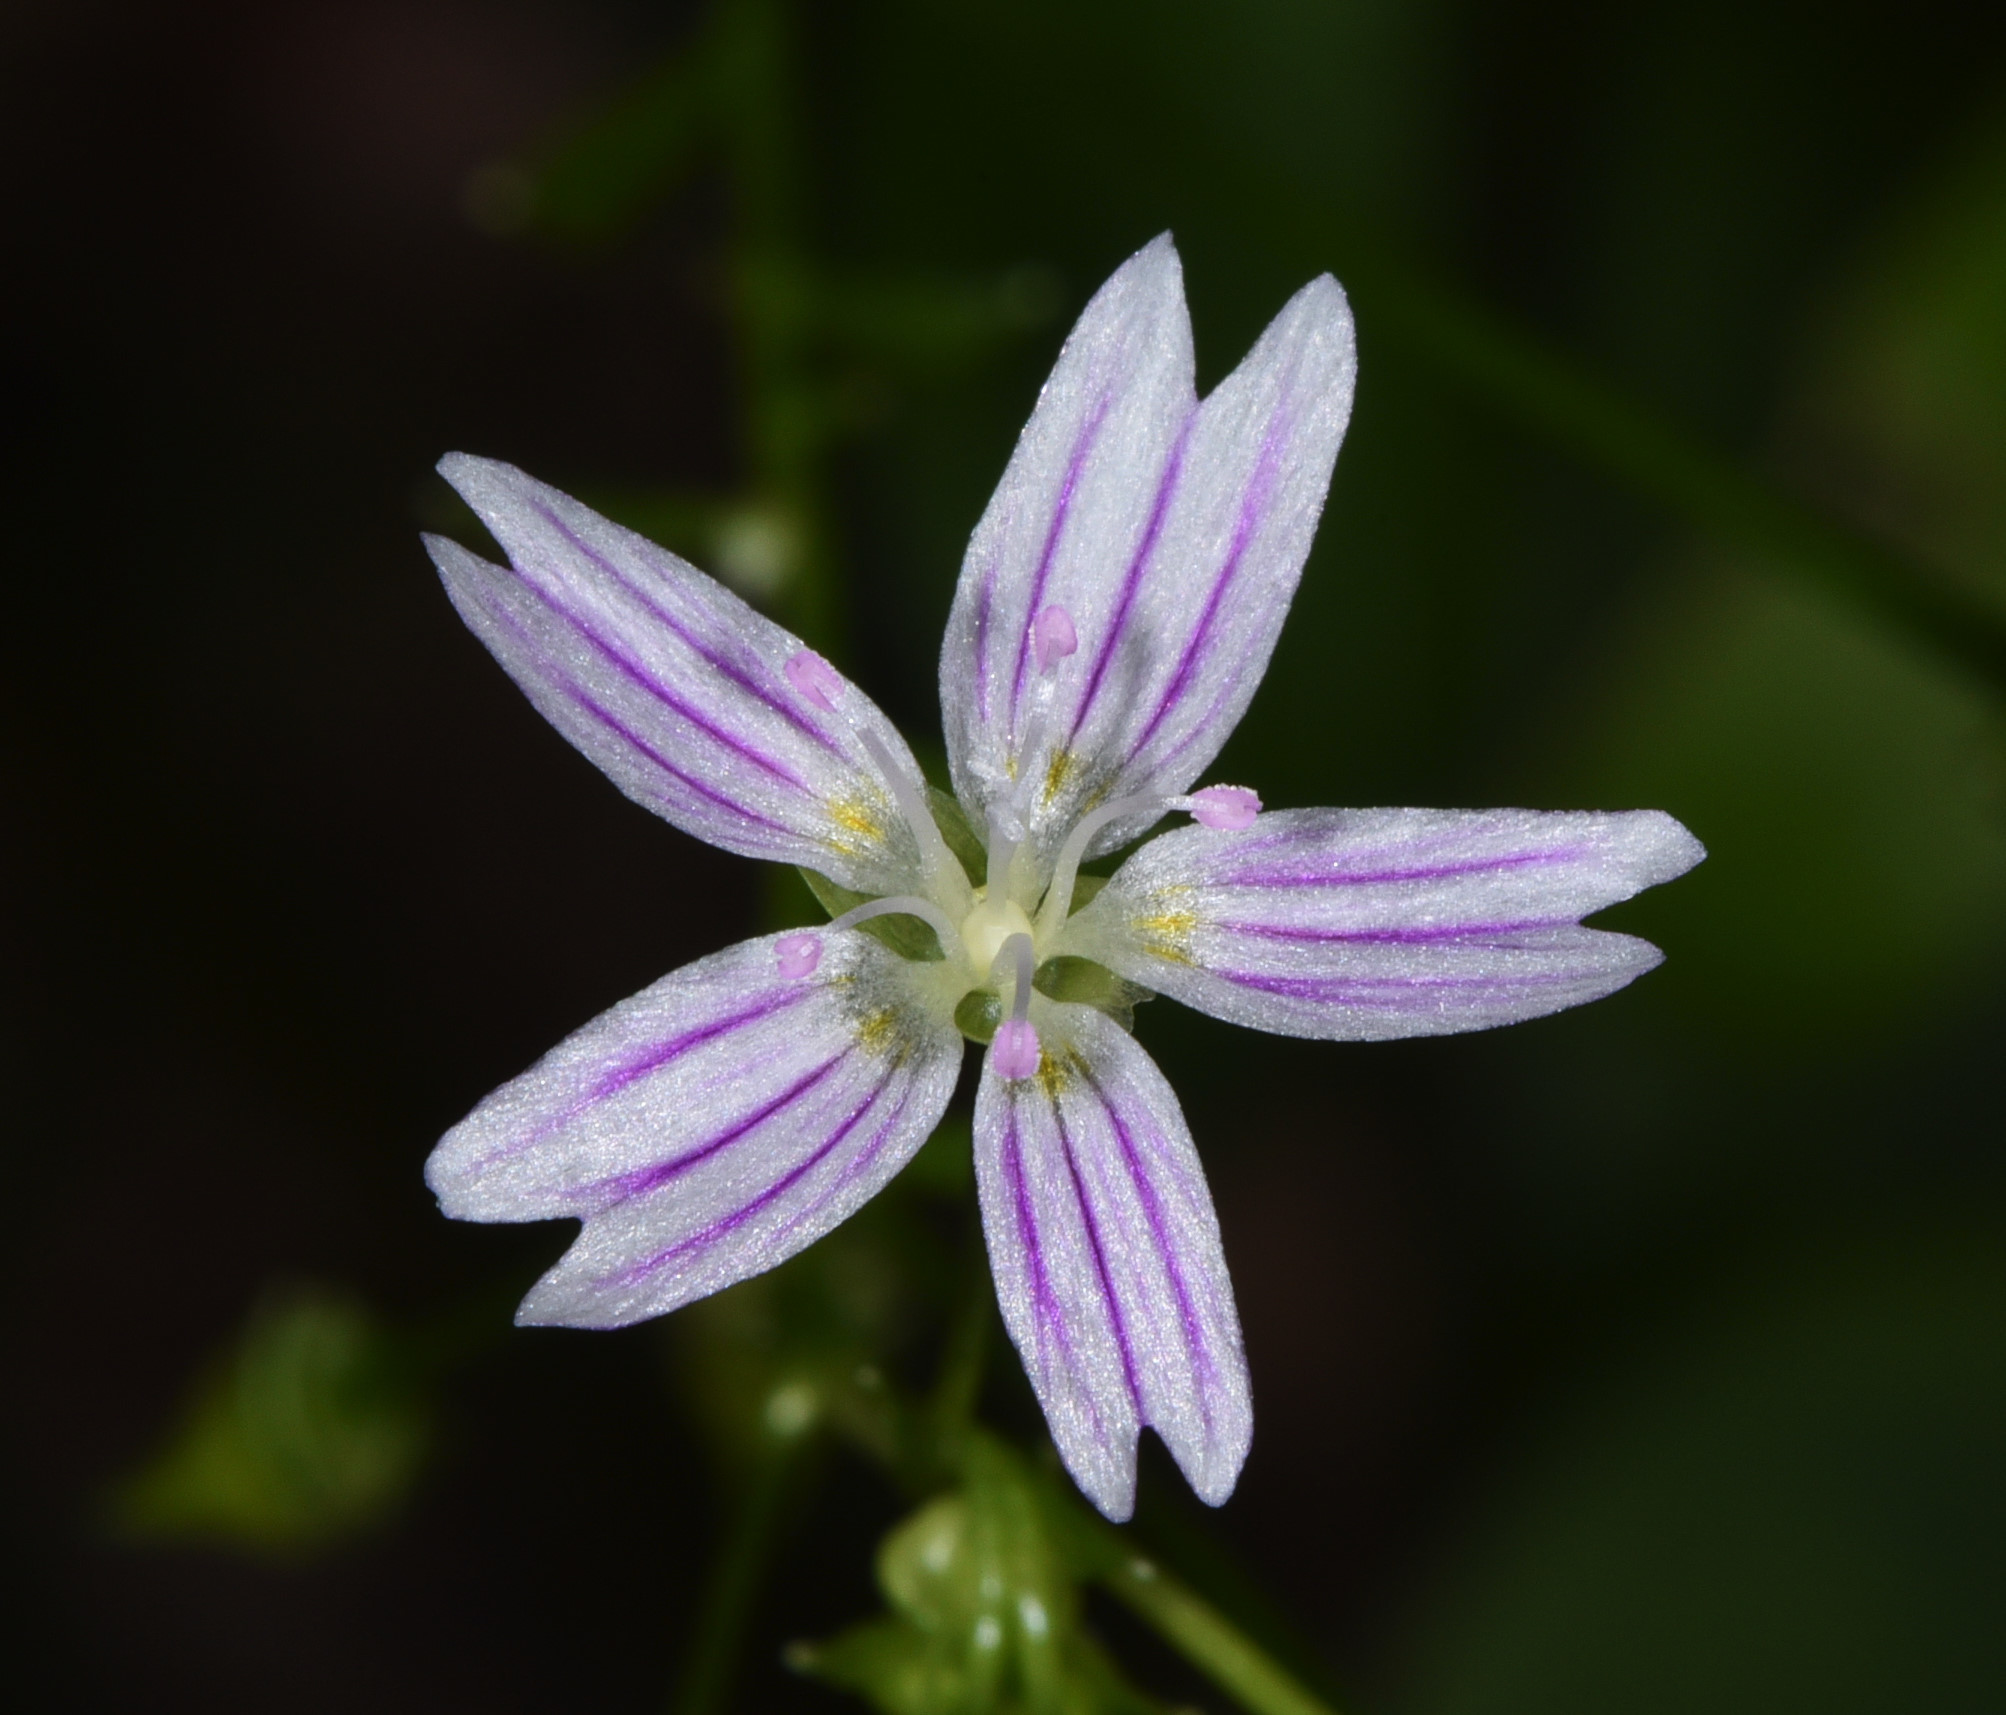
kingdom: Plantae
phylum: Tracheophyta
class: Magnoliopsida
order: Caryophyllales
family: Montiaceae
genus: Claytonia
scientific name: Claytonia sibirica
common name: Pink purslane
